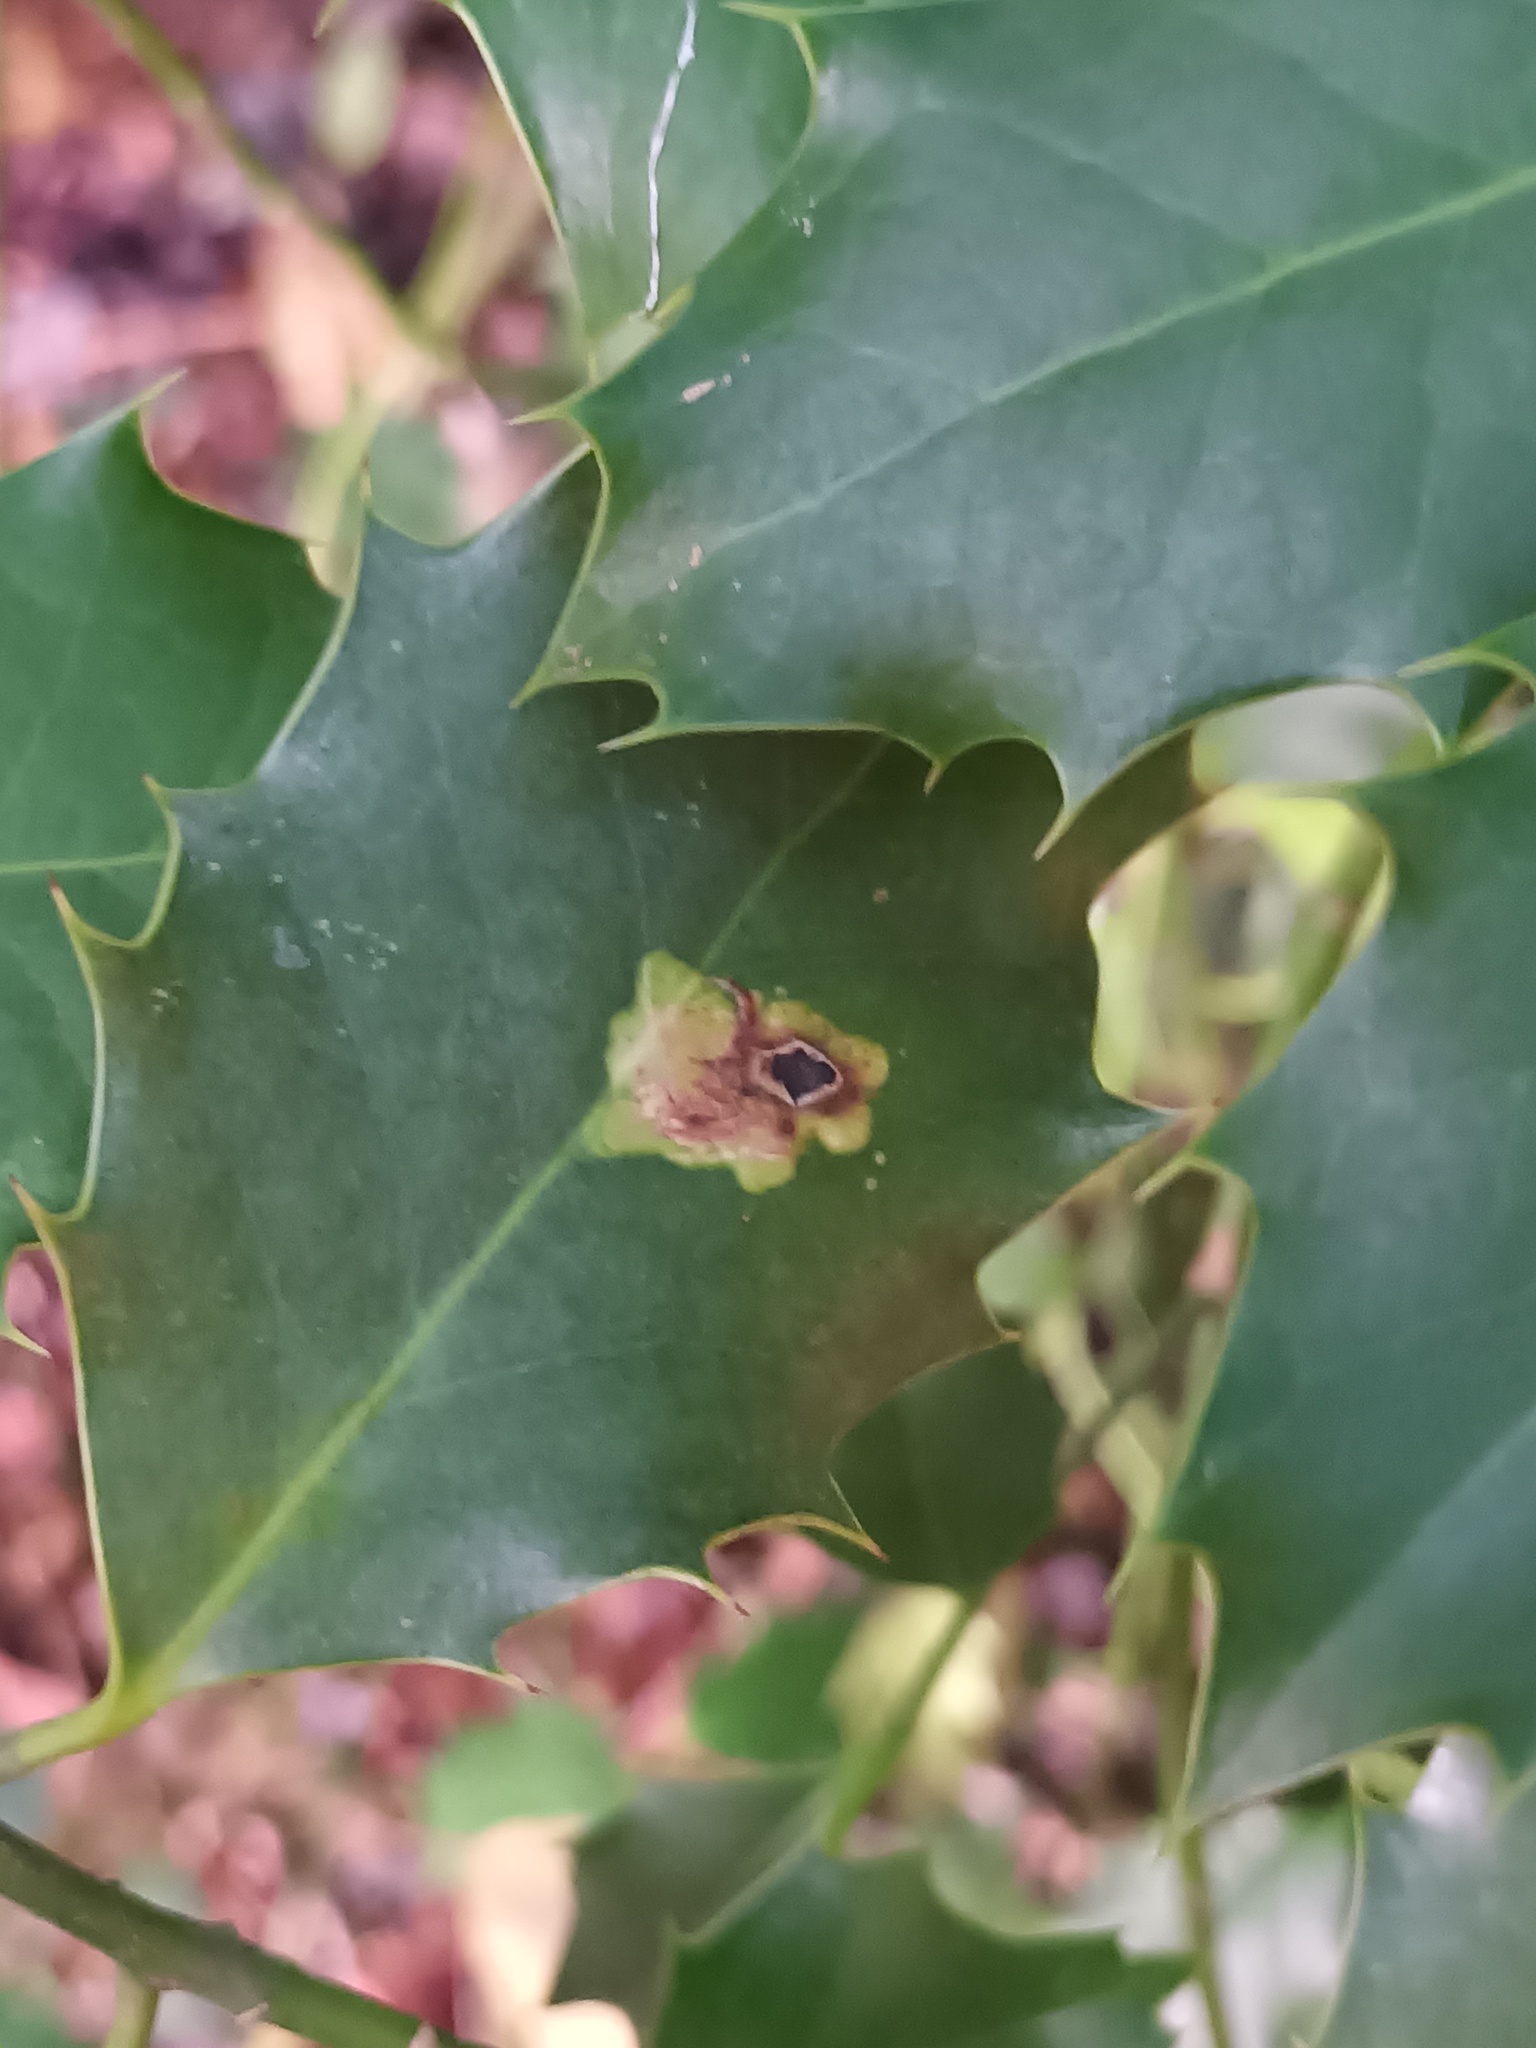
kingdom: Animalia
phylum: Arthropoda
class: Insecta
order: Diptera
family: Agromyzidae
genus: Phytomyza
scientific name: Phytomyza ilicis
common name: Holly leafminer
